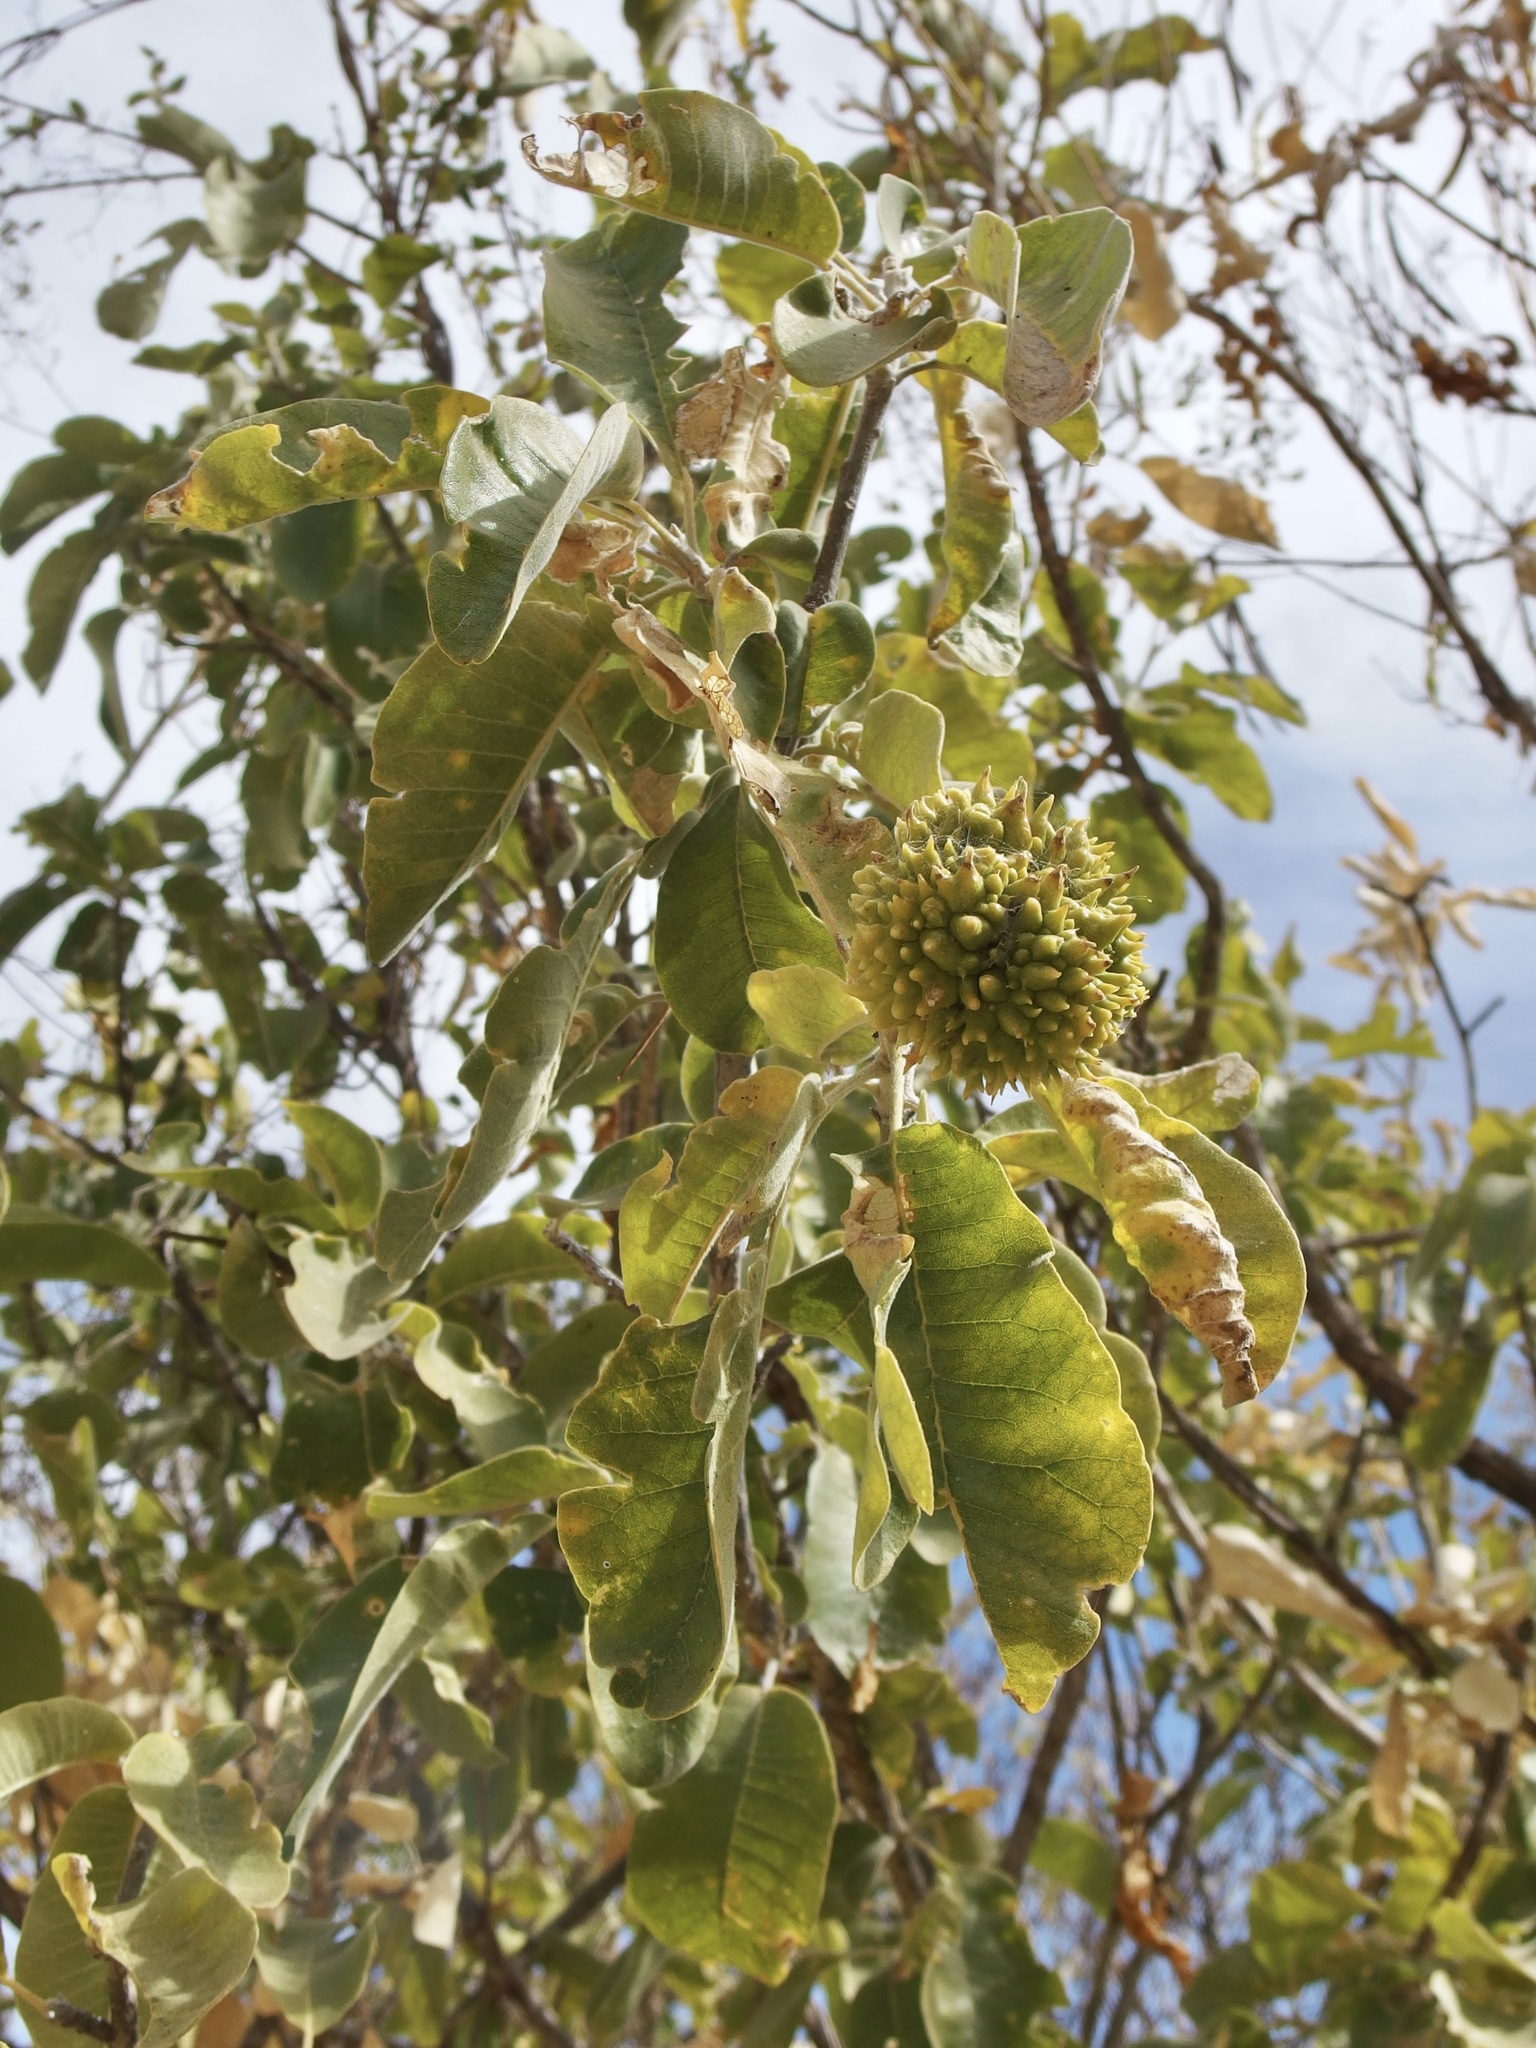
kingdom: Plantae
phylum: Tracheophyta
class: Magnoliopsida
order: Sapindales
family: Rutaceae
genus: Esenbeckia
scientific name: Esenbeckia flava
